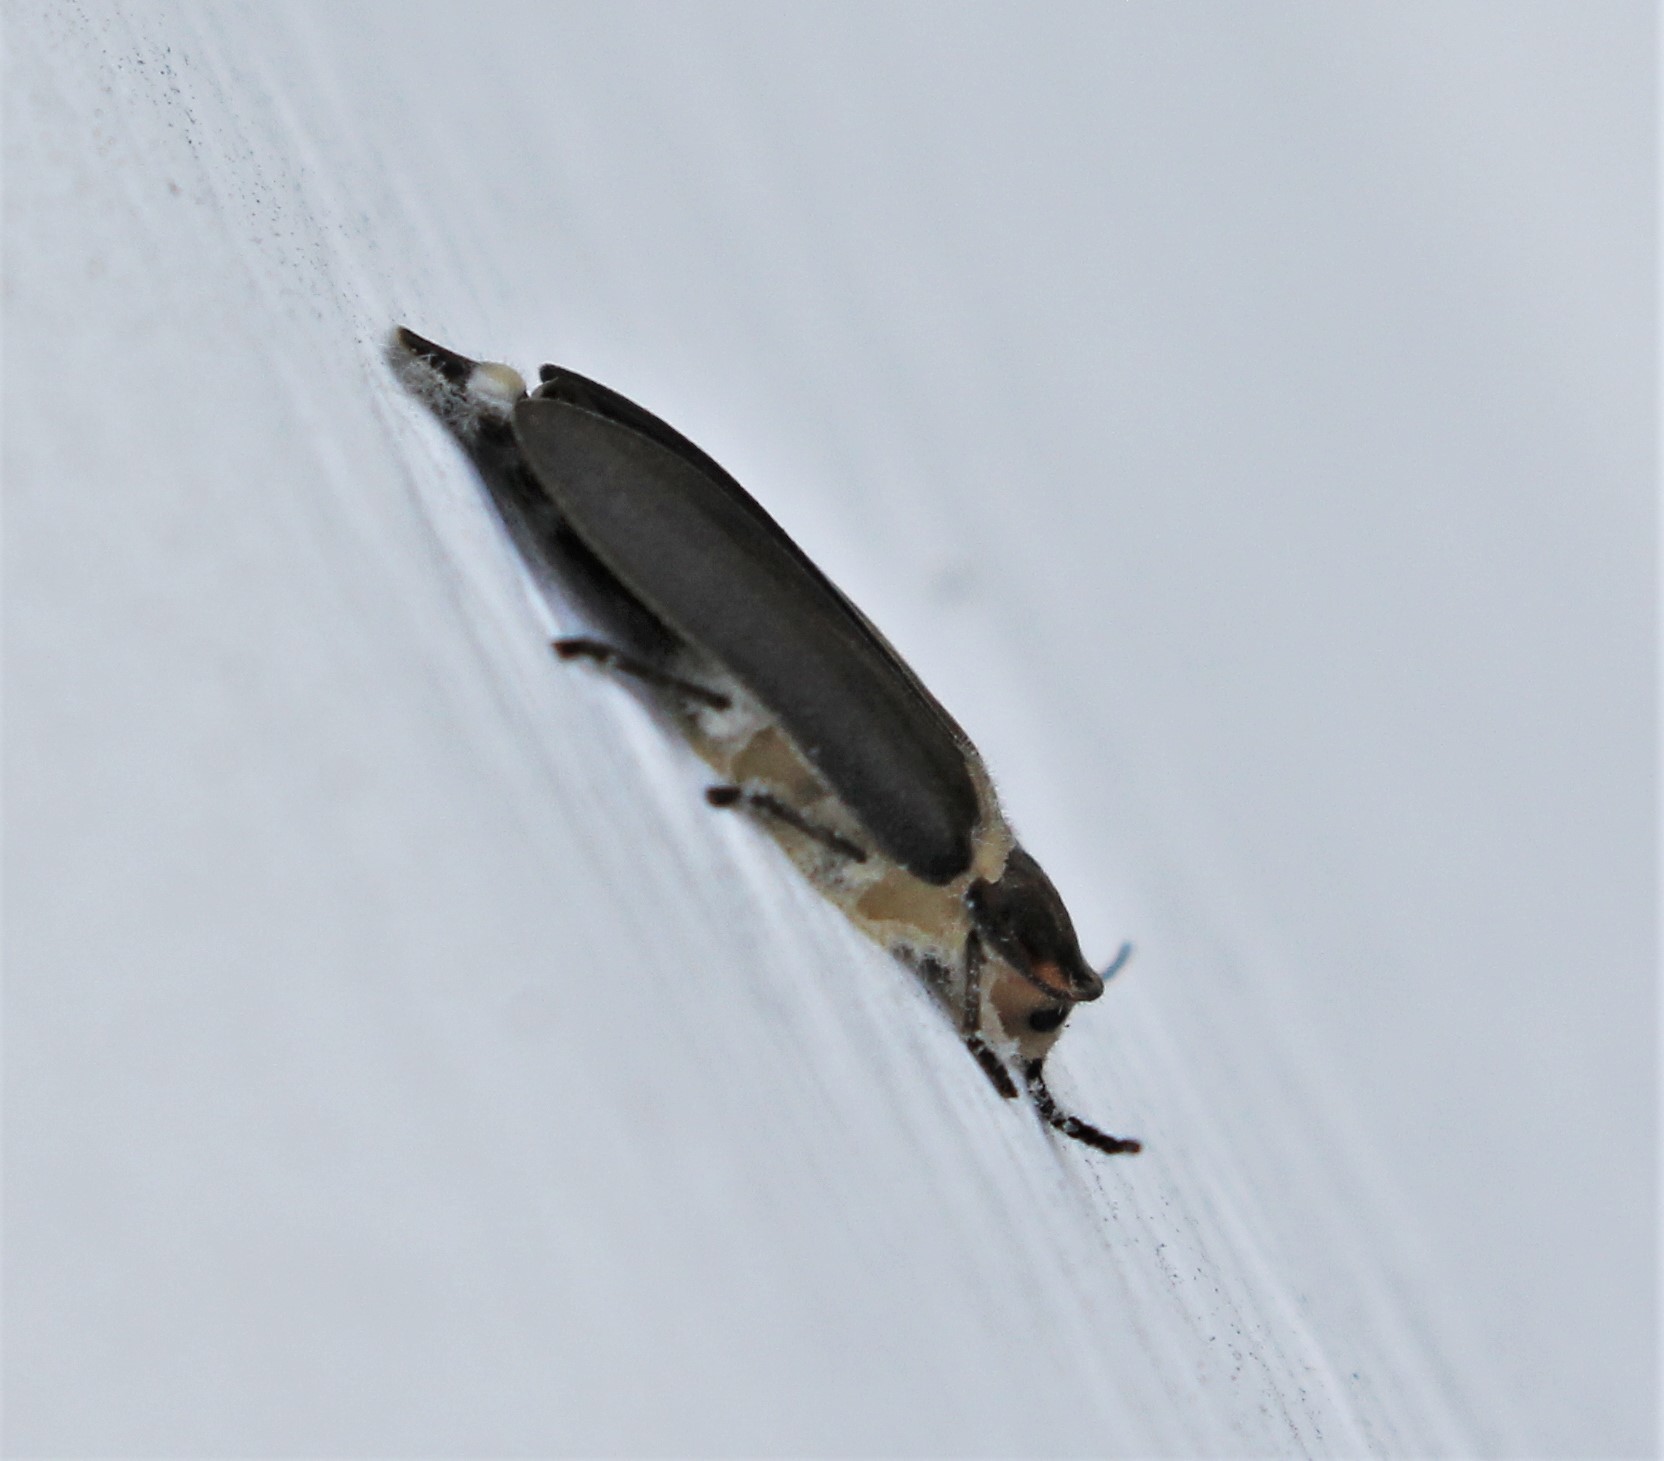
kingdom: Fungi
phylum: Ascomycota
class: Sordariomycetes
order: Hypocreales
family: Cordycipitaceae
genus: Beauveria
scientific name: Beauveria bassiana
